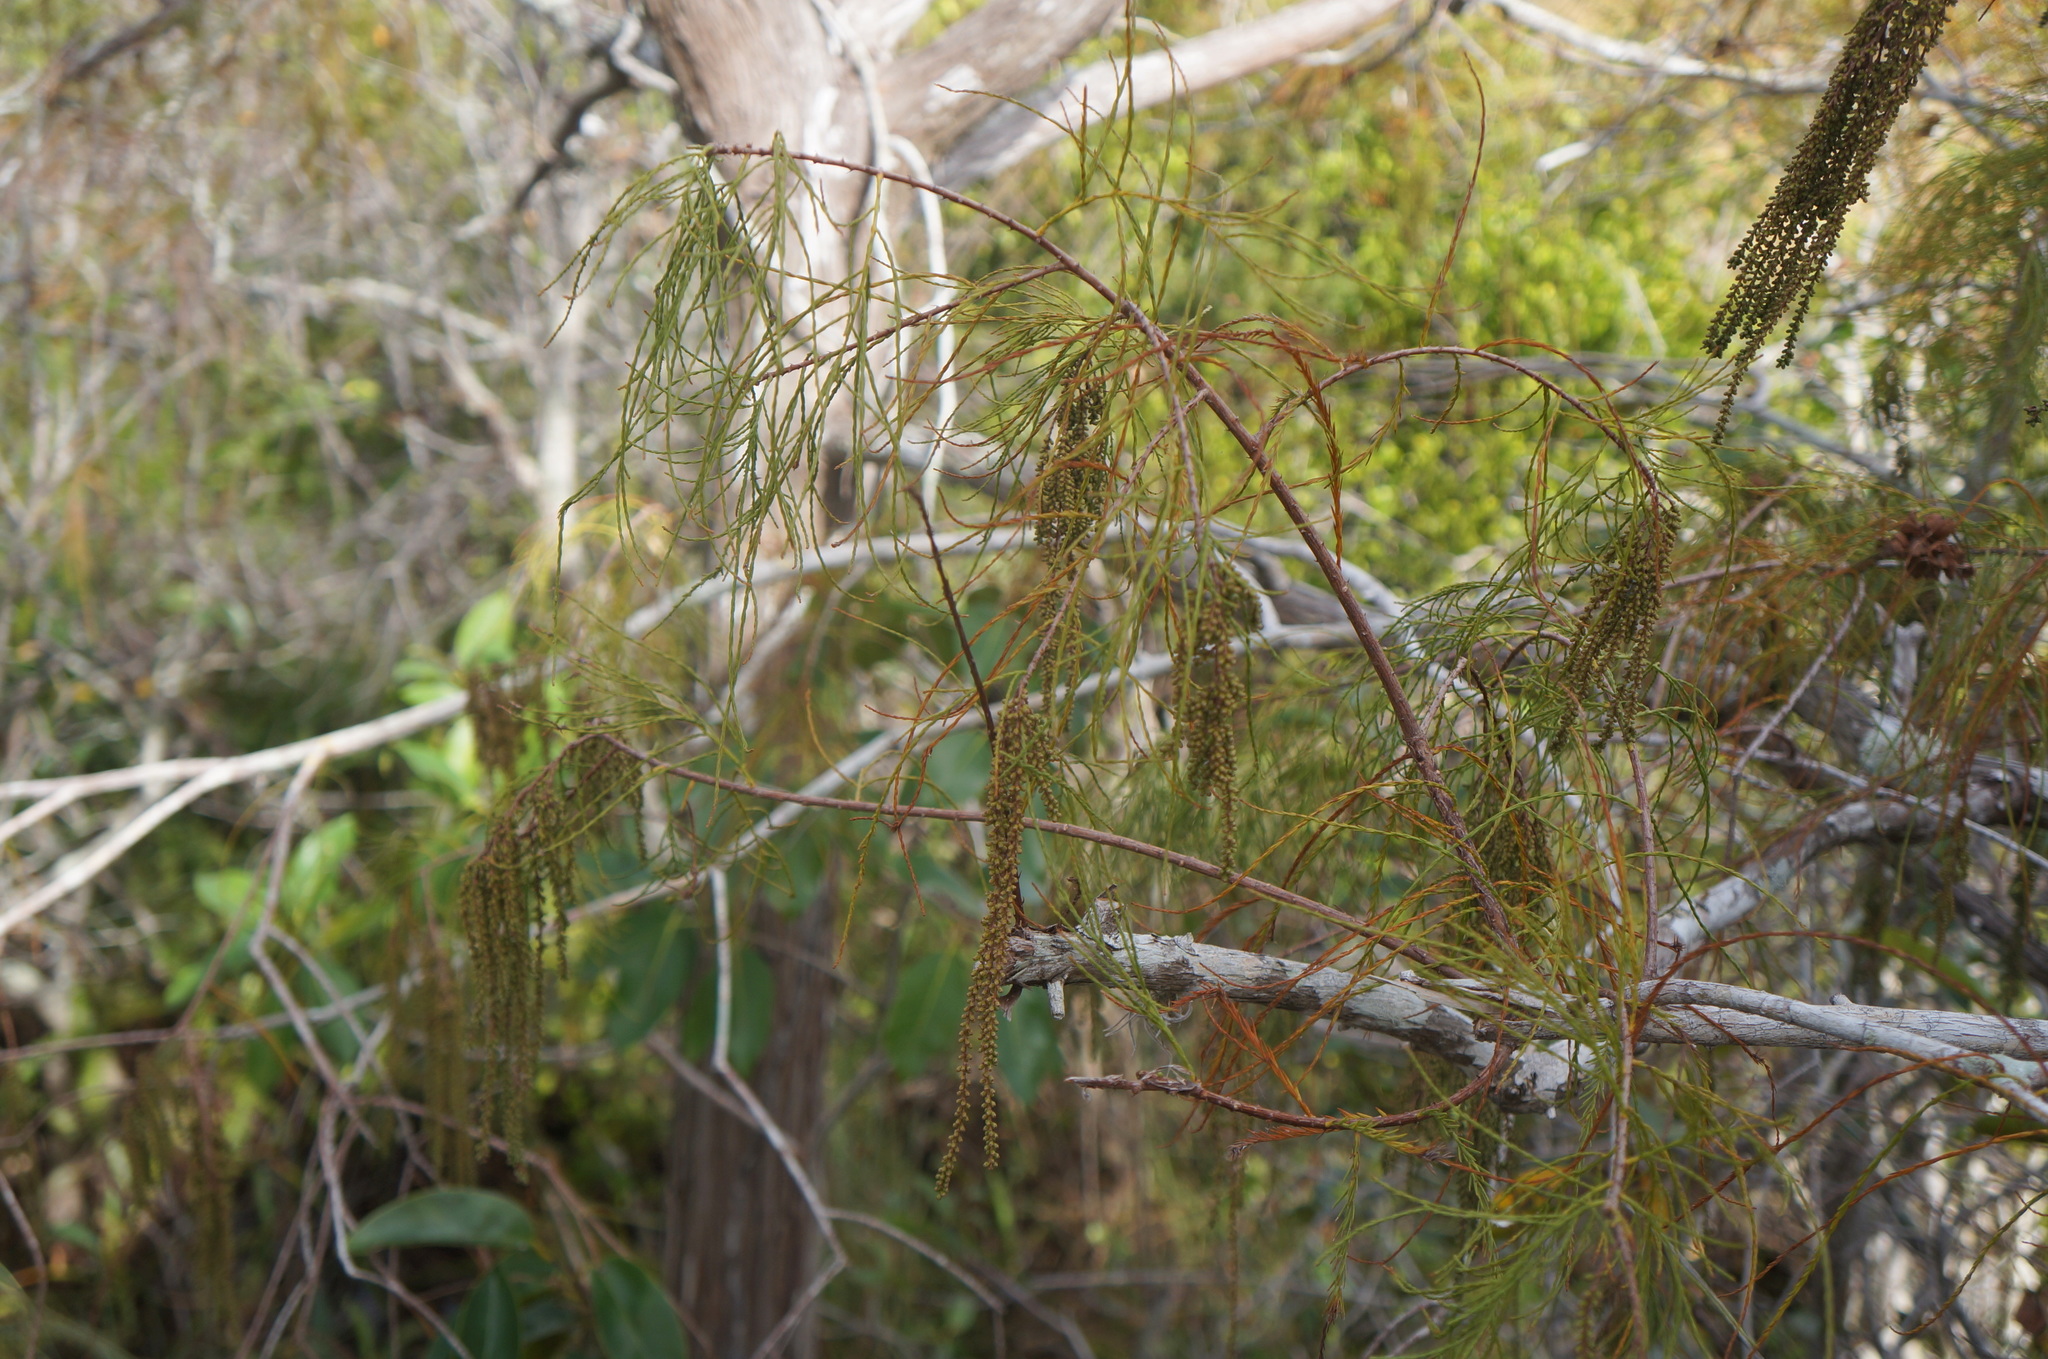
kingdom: Plantae
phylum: Tracheophyta
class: Pinopsida
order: Pinales
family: Cupressaceae
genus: Taxodium
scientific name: Taxodium distichum
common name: Bald cypress
